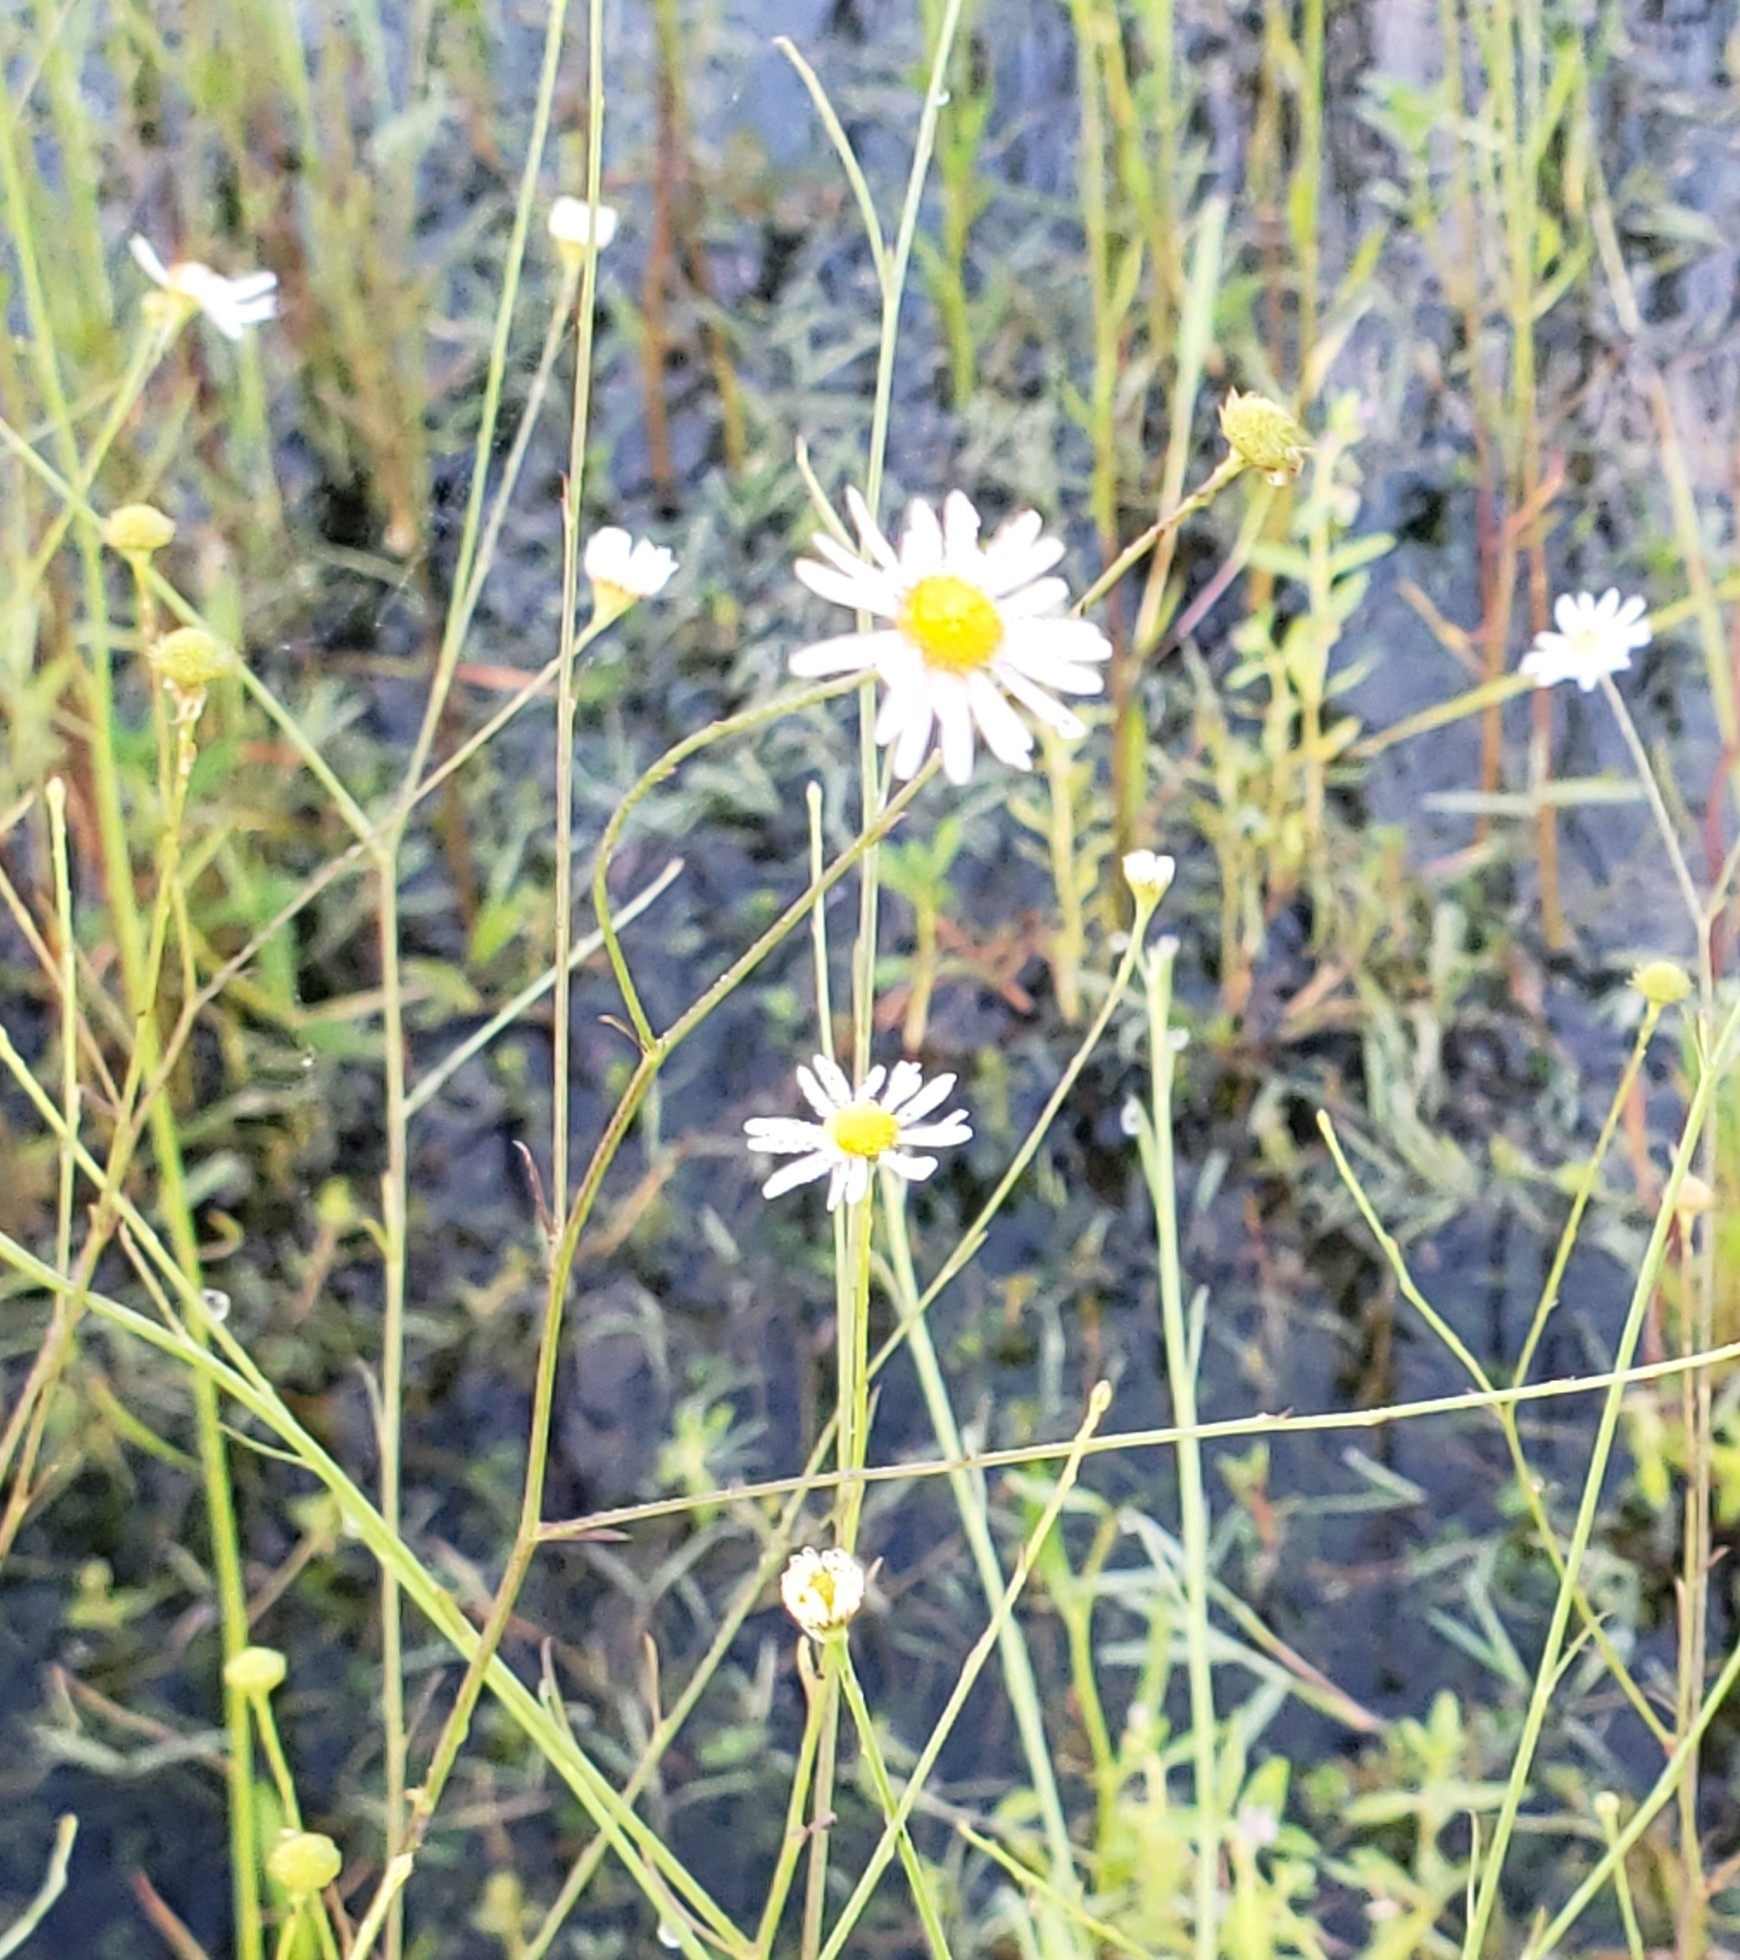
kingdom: Plantae
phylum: Tracheophyta
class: Magnoliopsida
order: Asterales
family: Asteraceae
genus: Boltonia
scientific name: Boltonia diffusa
